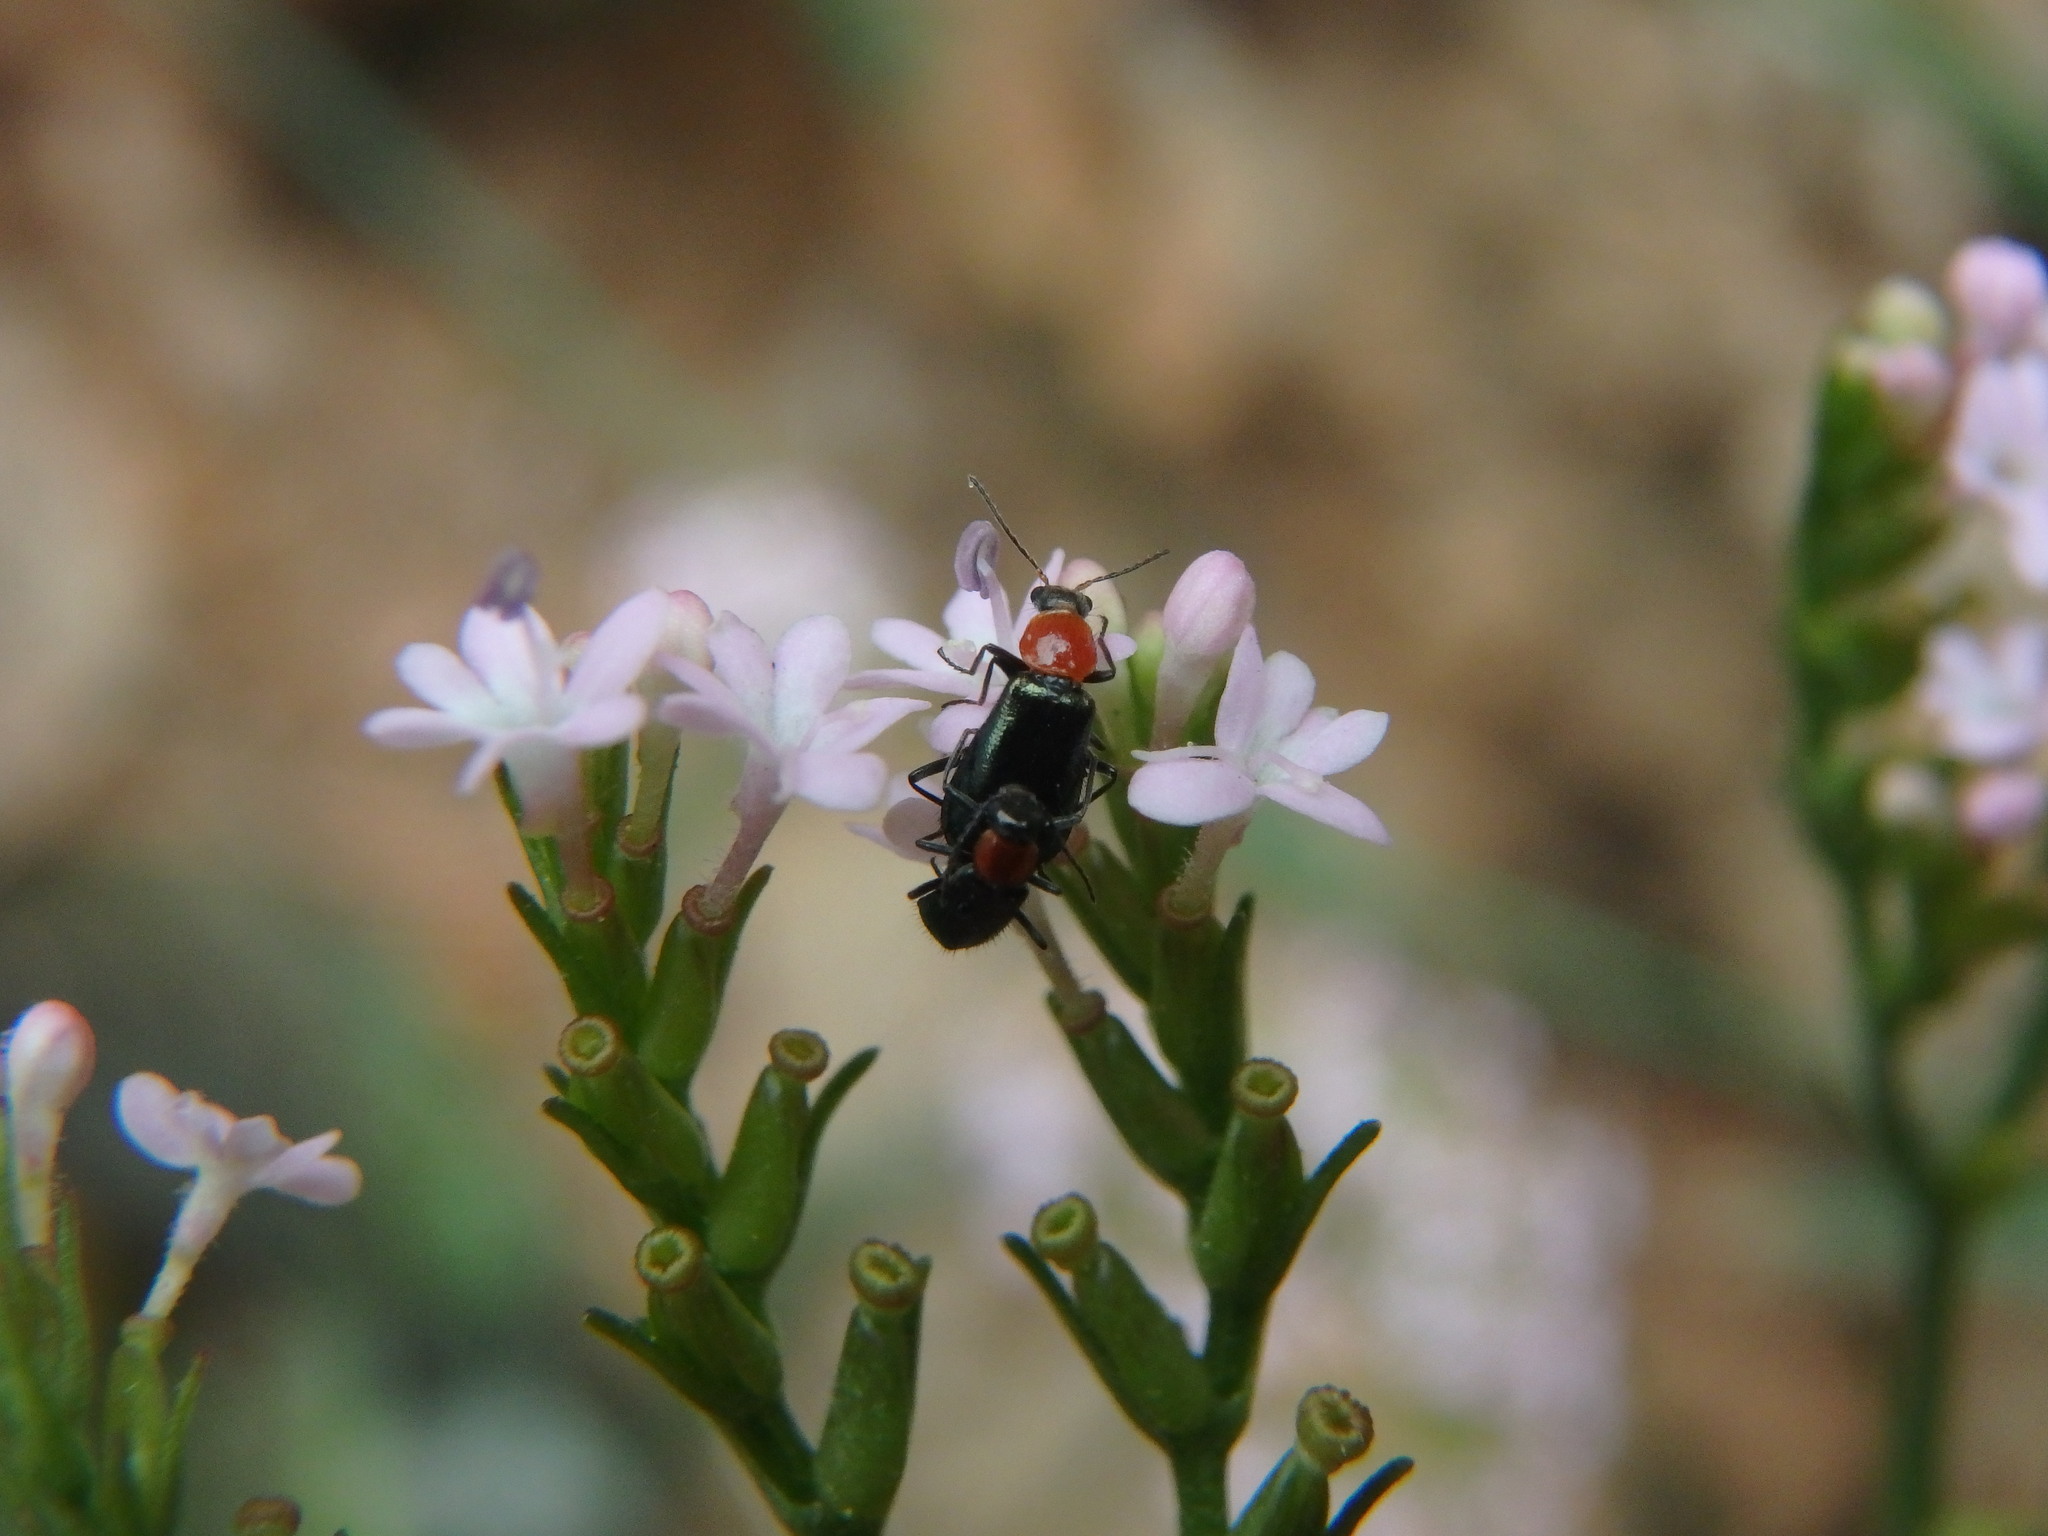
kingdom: Plantae
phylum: Tracheophyta
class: Magnoliopsida
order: Dipsacales
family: Caprifoliaceae
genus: Centranthus
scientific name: Centranthus calcitrapae
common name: Annual valerian
